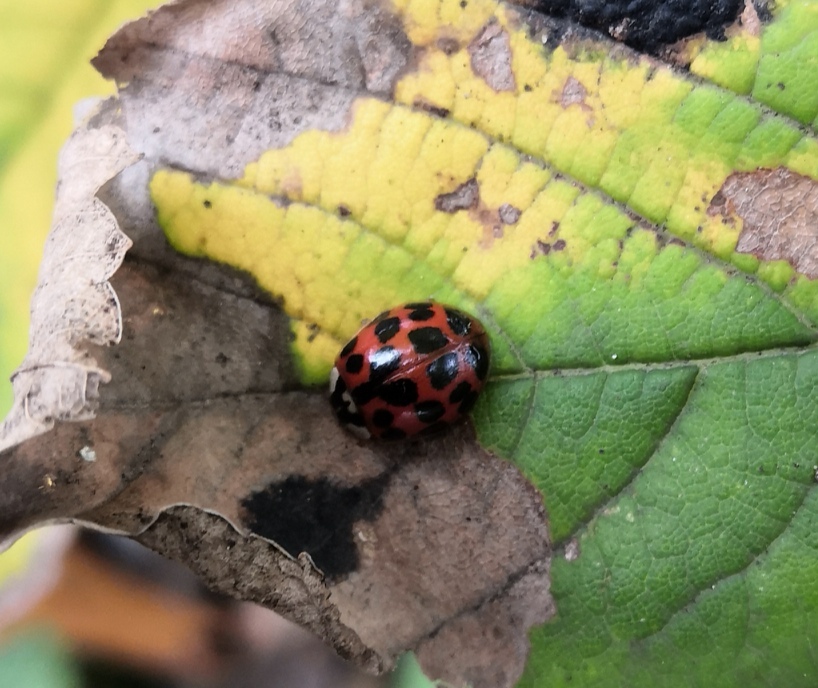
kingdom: Animalia
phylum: Arthropoda
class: Insecta
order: Coleoptera
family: Coccinellidae
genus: Harmonia
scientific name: Harmonia axyridis
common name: Harlequin ladybird
